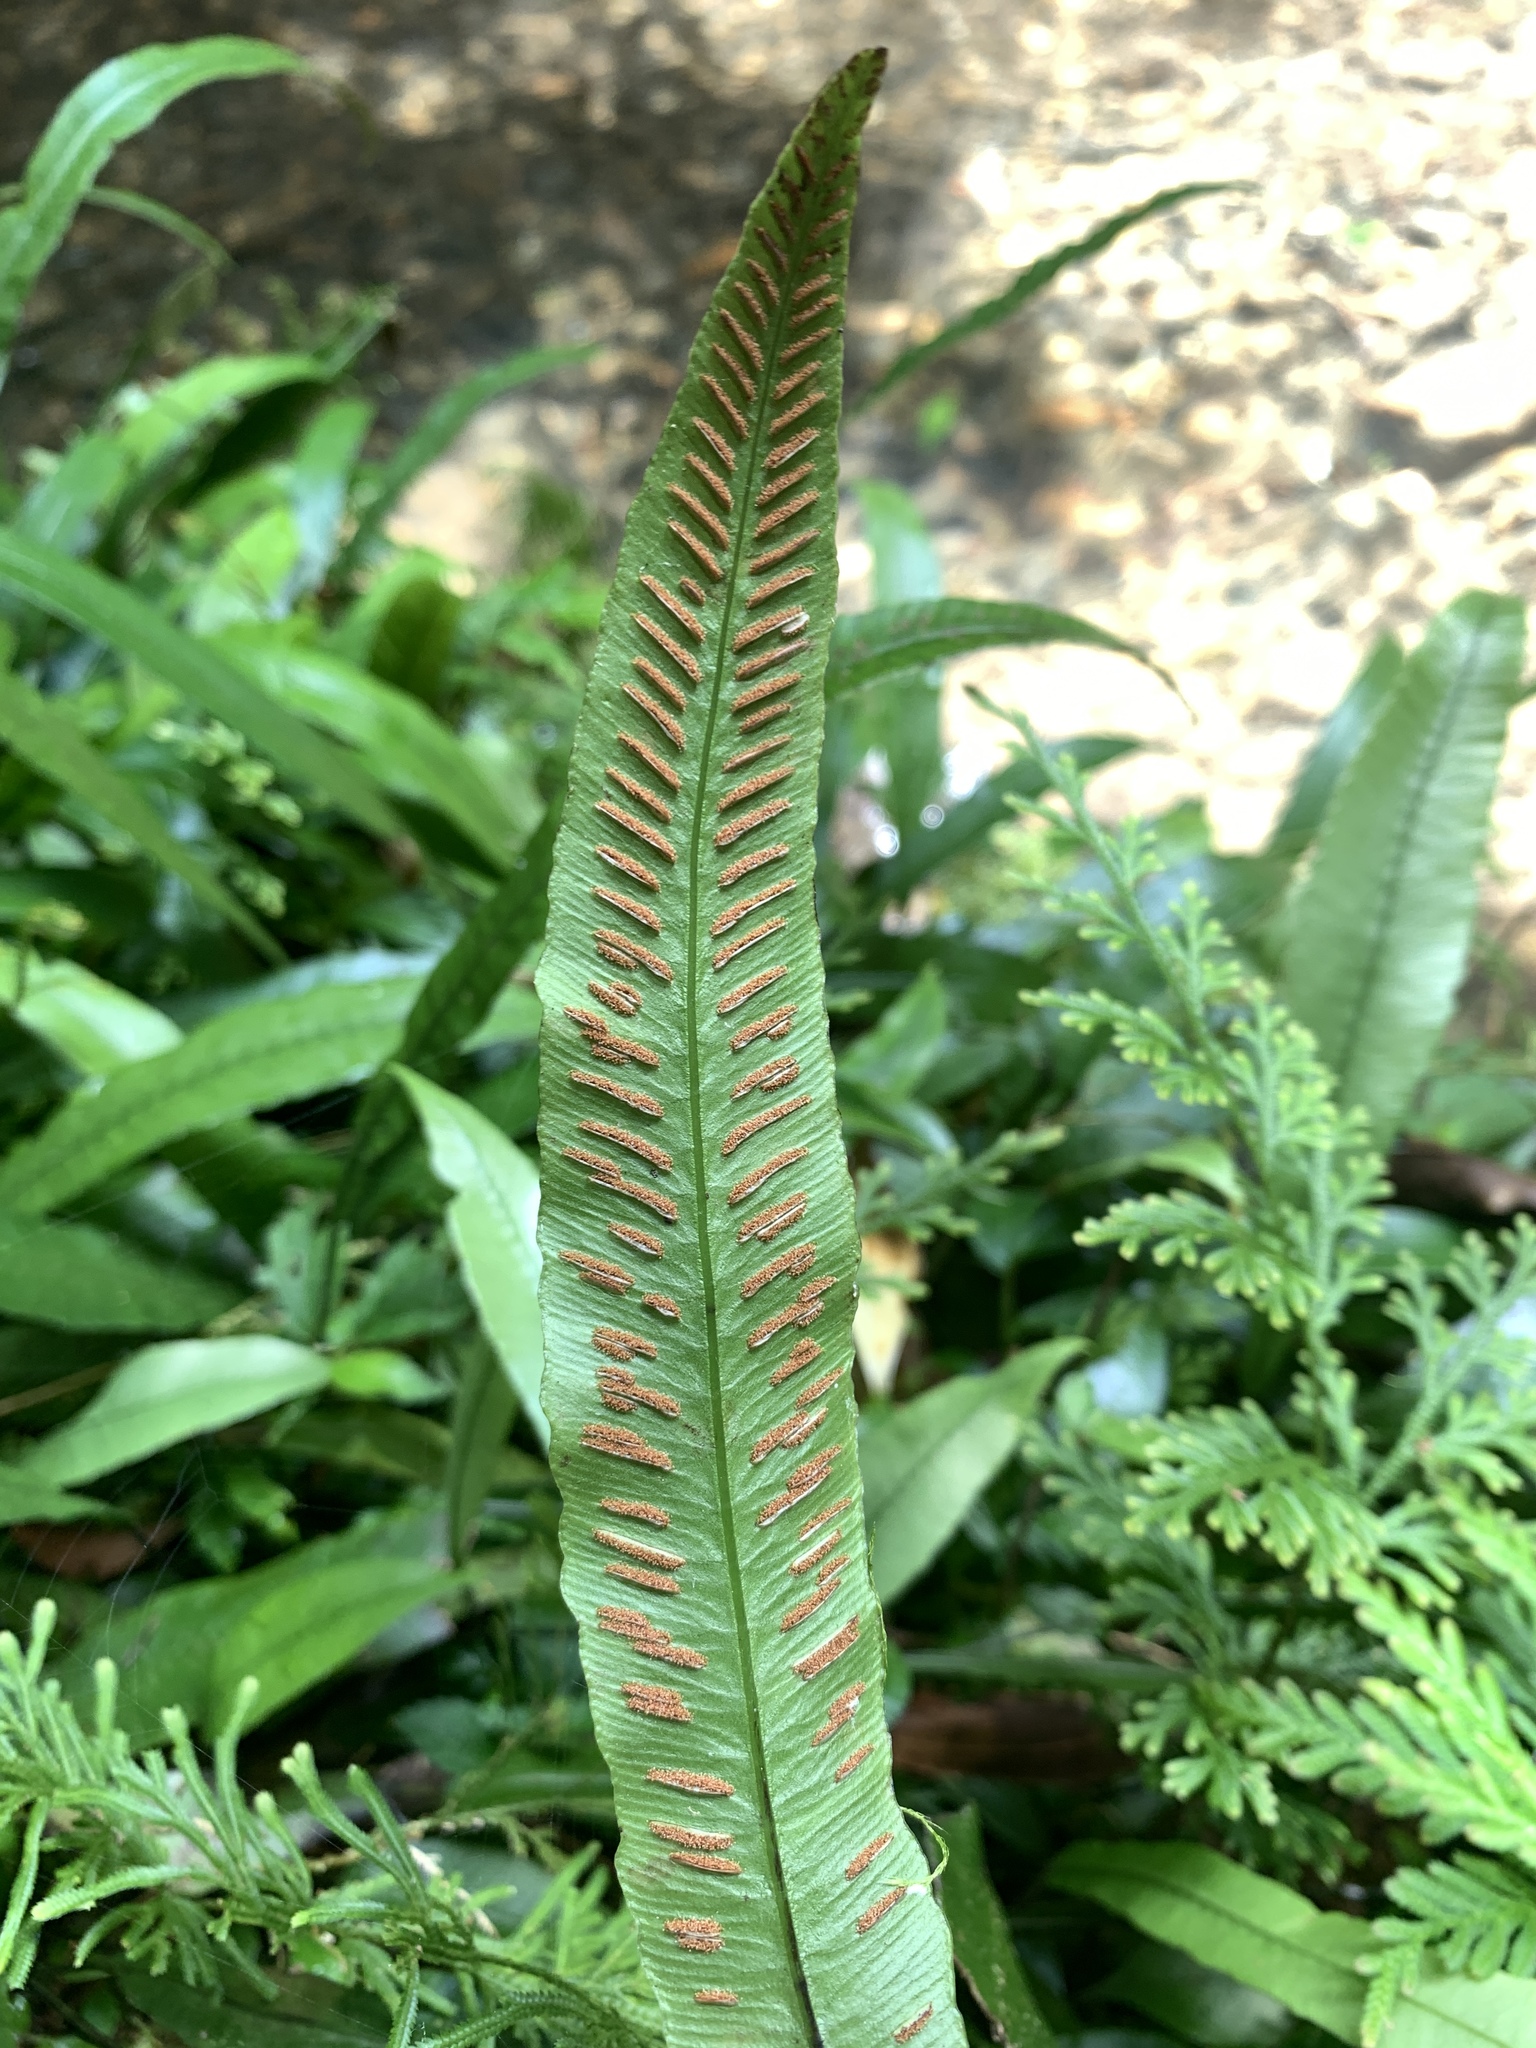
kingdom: Plantae
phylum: Tracheophyta
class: Polypodiopsida
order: Polypodiales
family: Athyriaceae
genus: Deparia
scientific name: Deparia lancea
